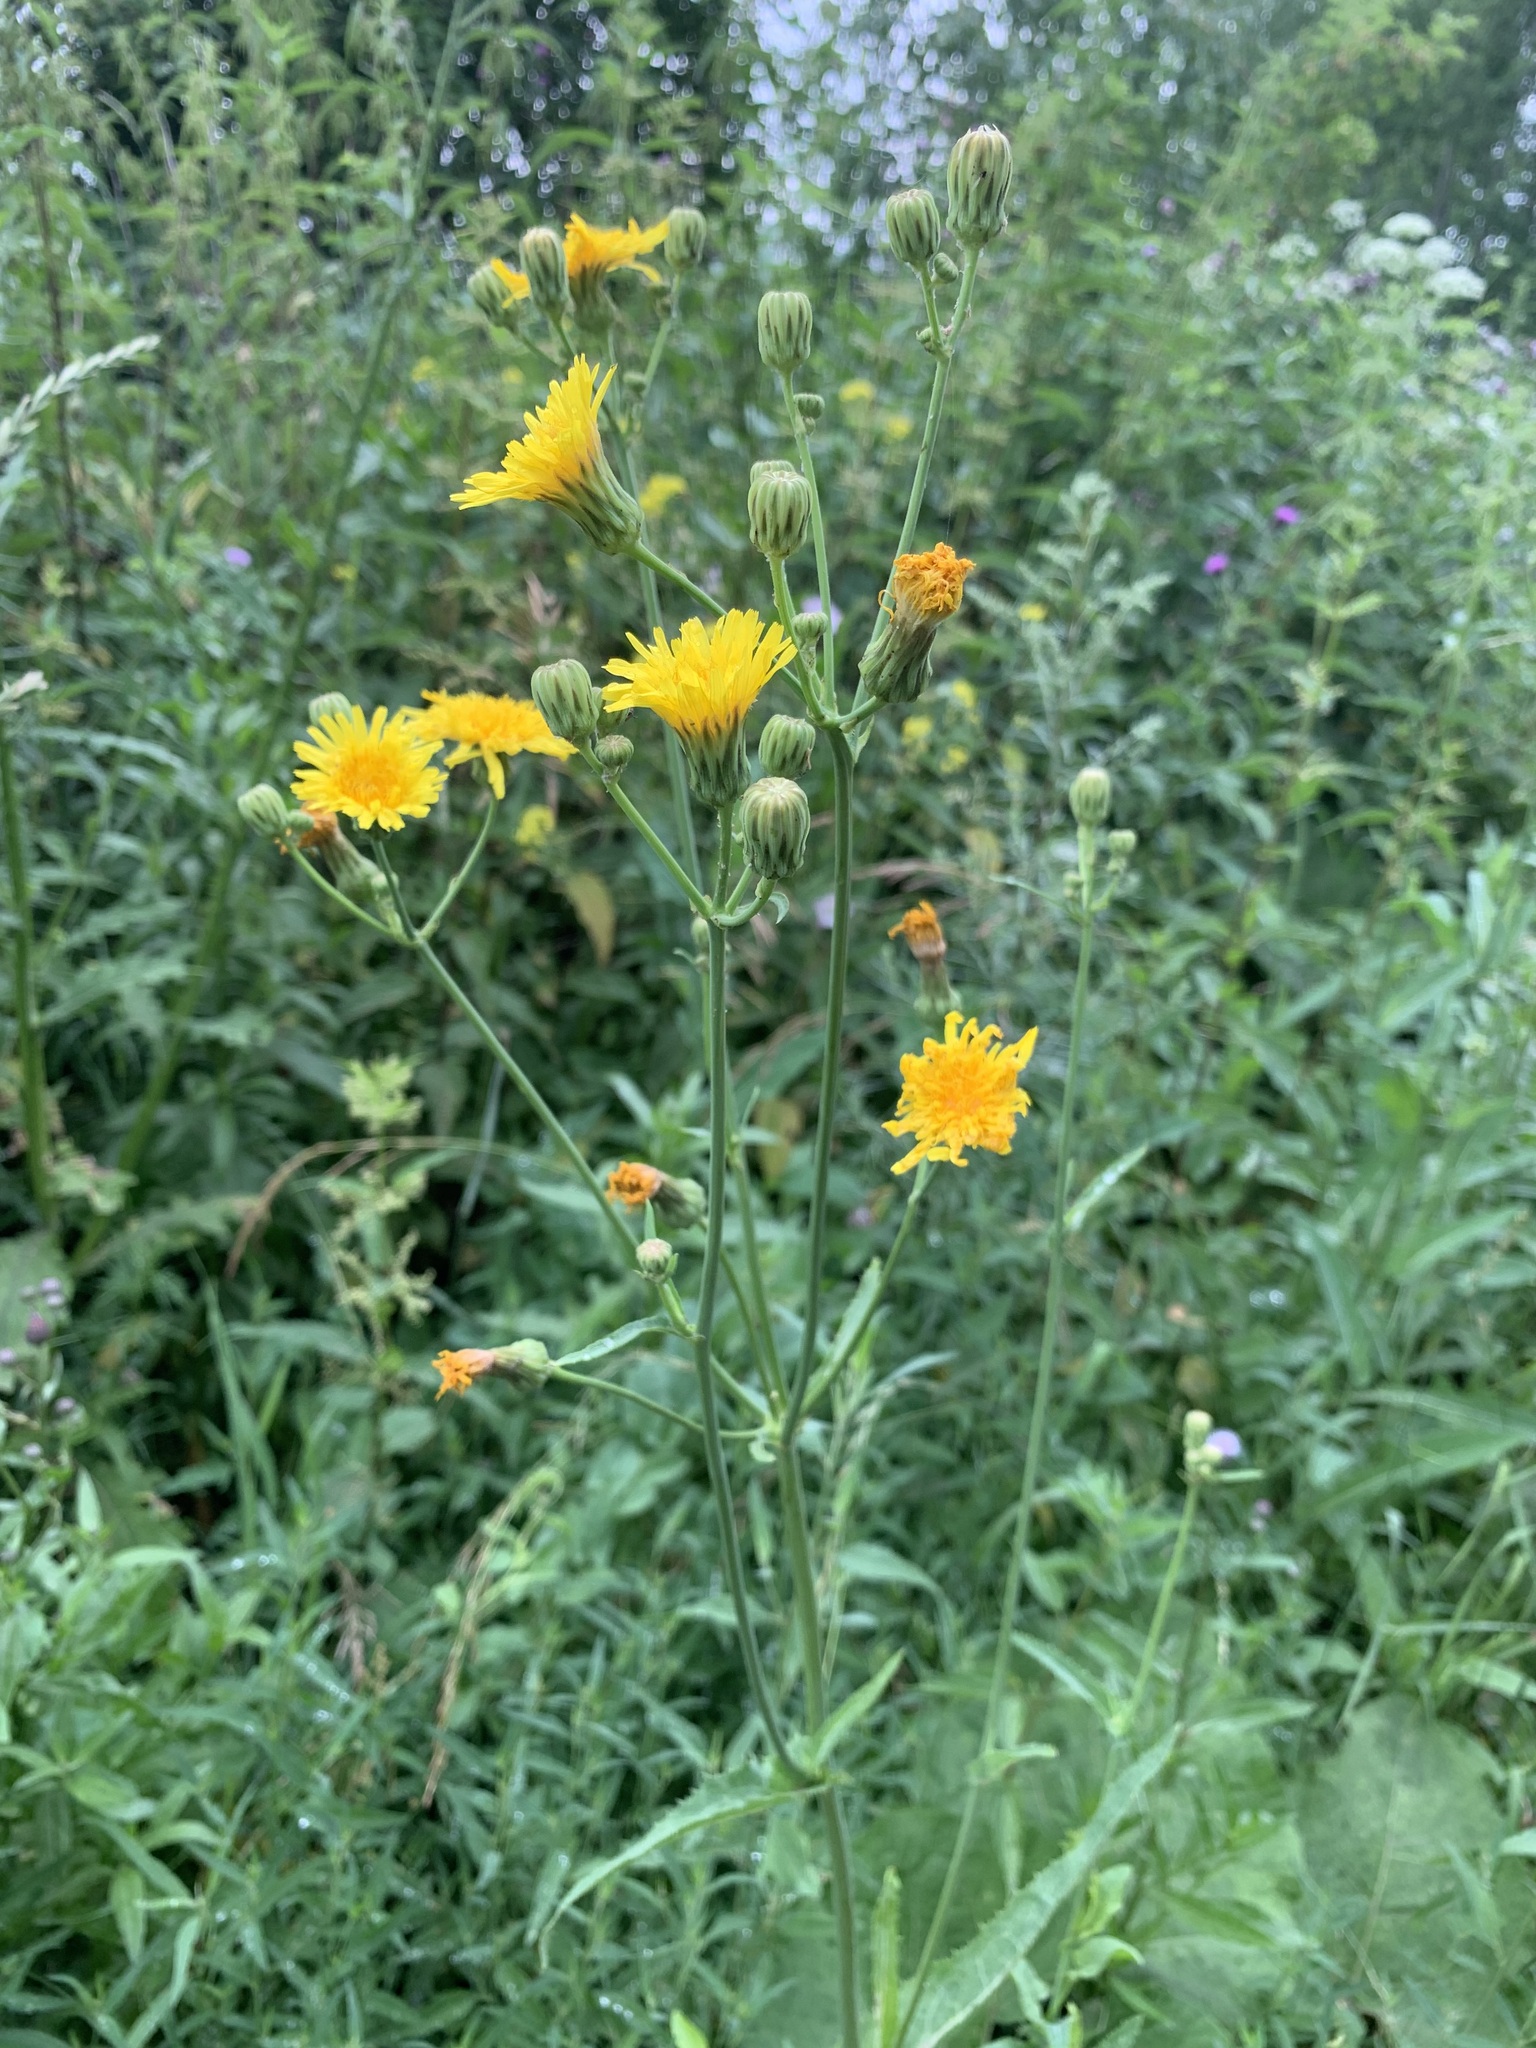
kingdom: Plantae
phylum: Tracheophyta
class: Magnoliopsida
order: Asterales
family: Asteraceae
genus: Sonchus
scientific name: Sonchus arvensis
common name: Perennial sow-thistle
